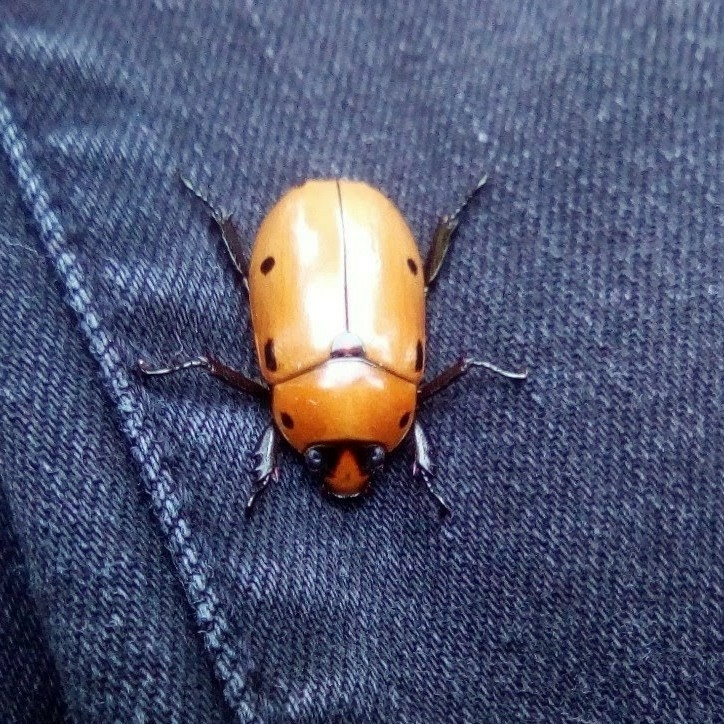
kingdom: Animalia
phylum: Arthropoda
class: Insecta
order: Coleoptera
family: Scarabaeidae
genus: Pelidnota
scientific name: Pelidnota punctata
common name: Grapevine beetle
